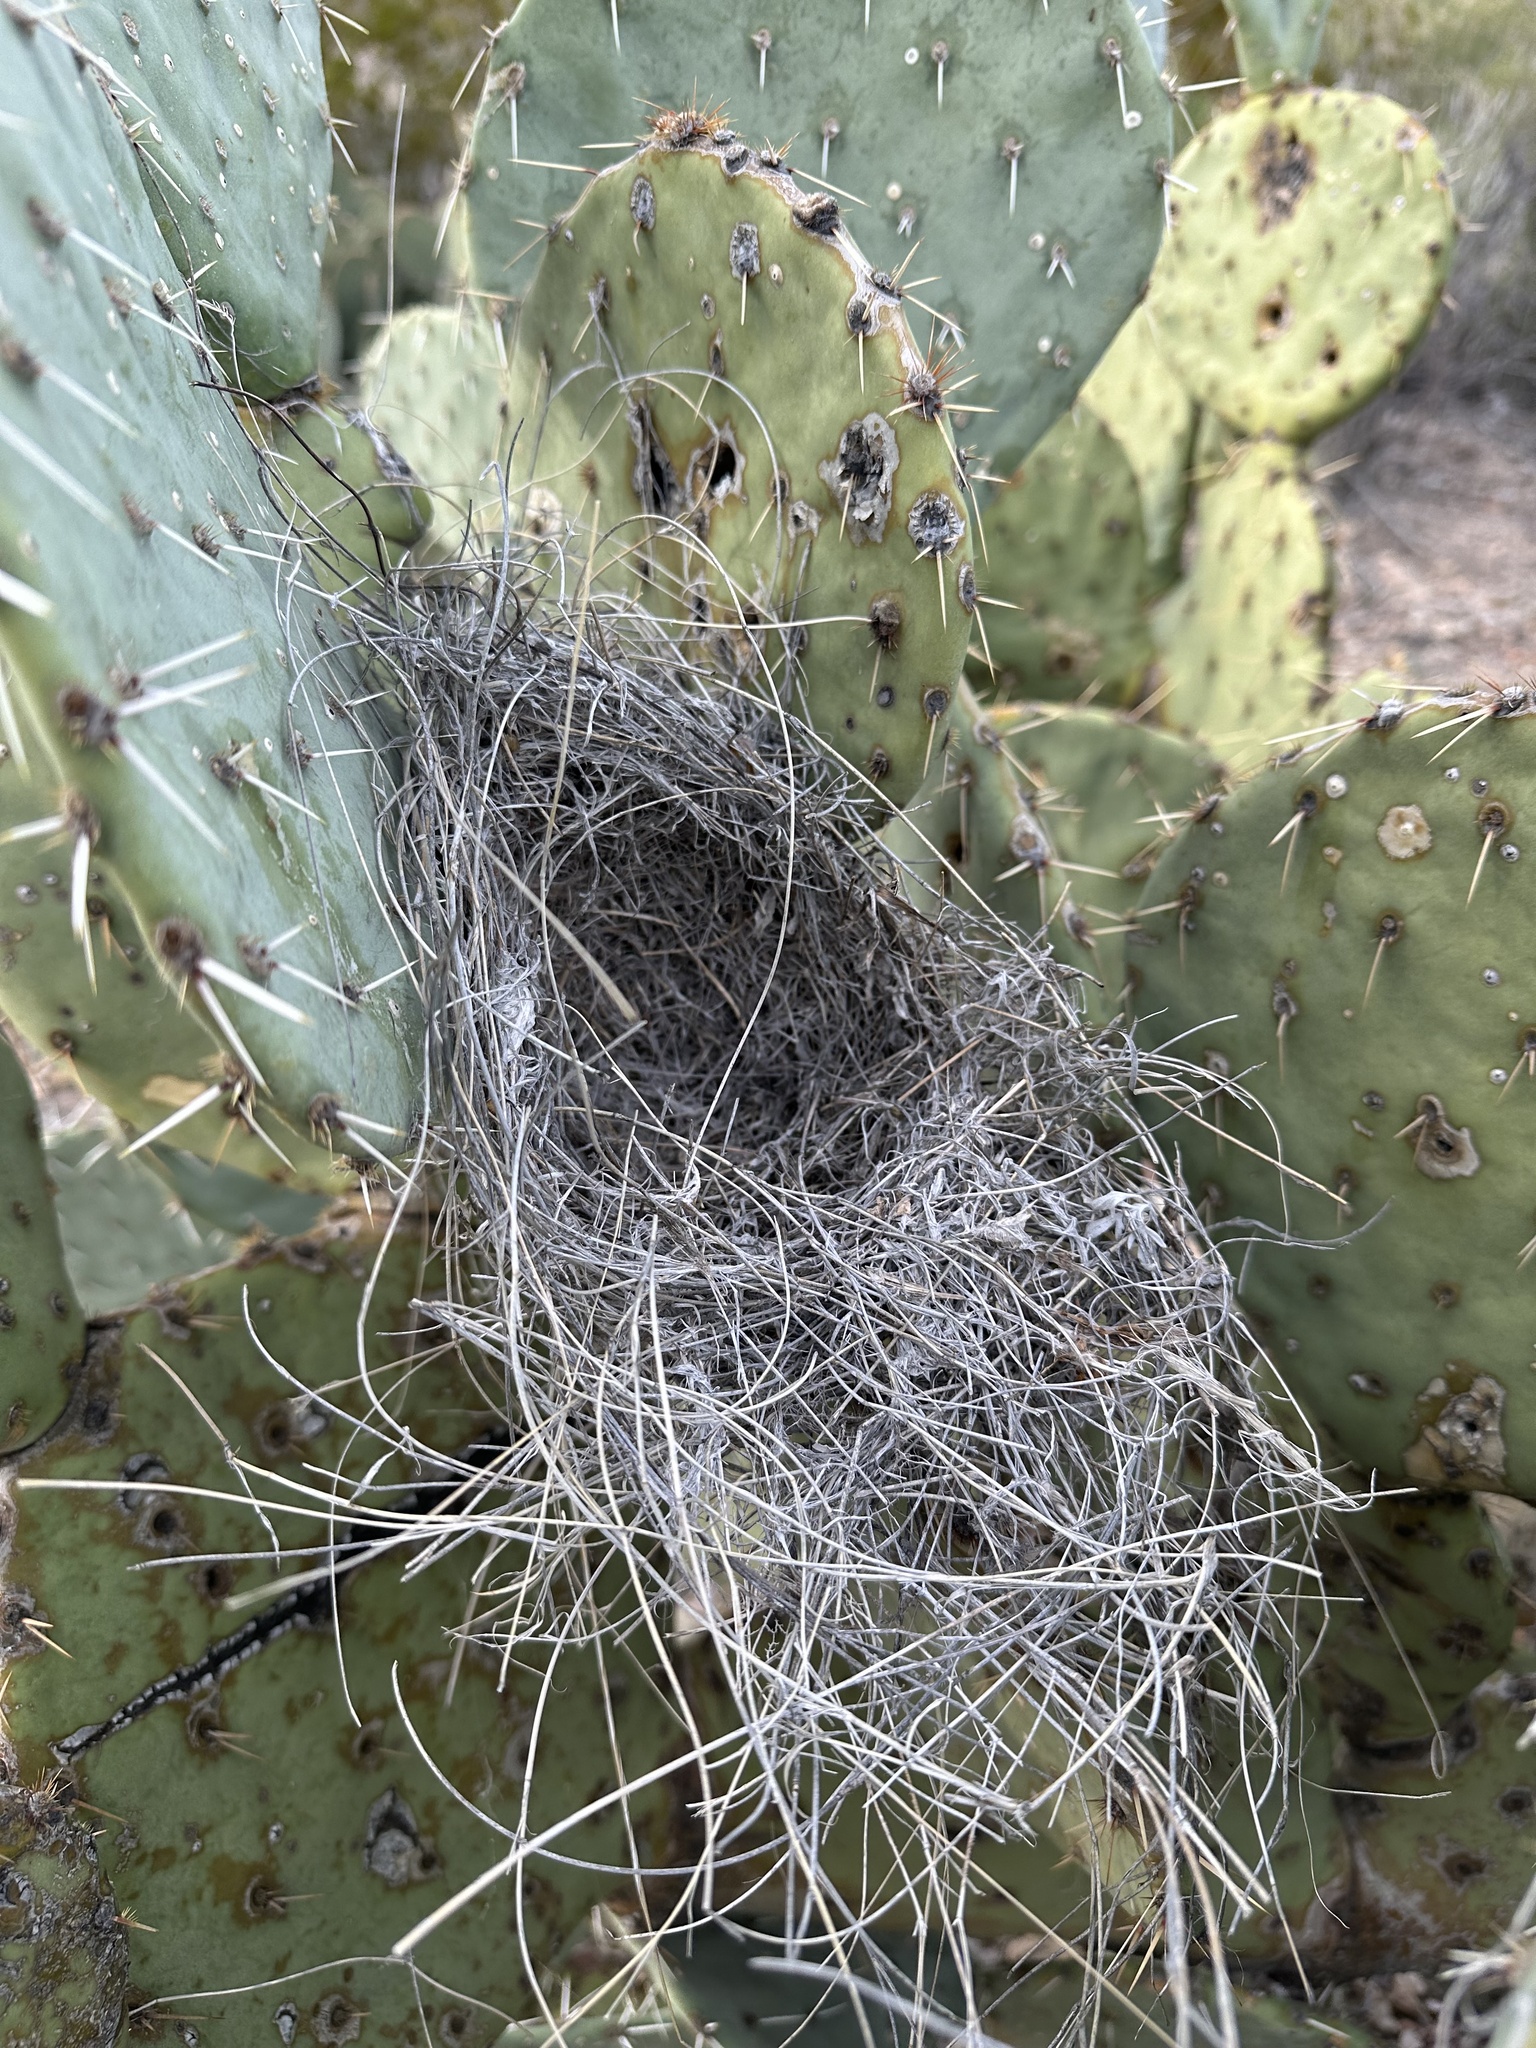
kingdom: Animalia
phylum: Chordata
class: Aves
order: Passeriformes
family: Troglodytidae
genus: Campylorhynchus
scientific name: Campylorhynchus brunneicapillus
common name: Cactus wren
